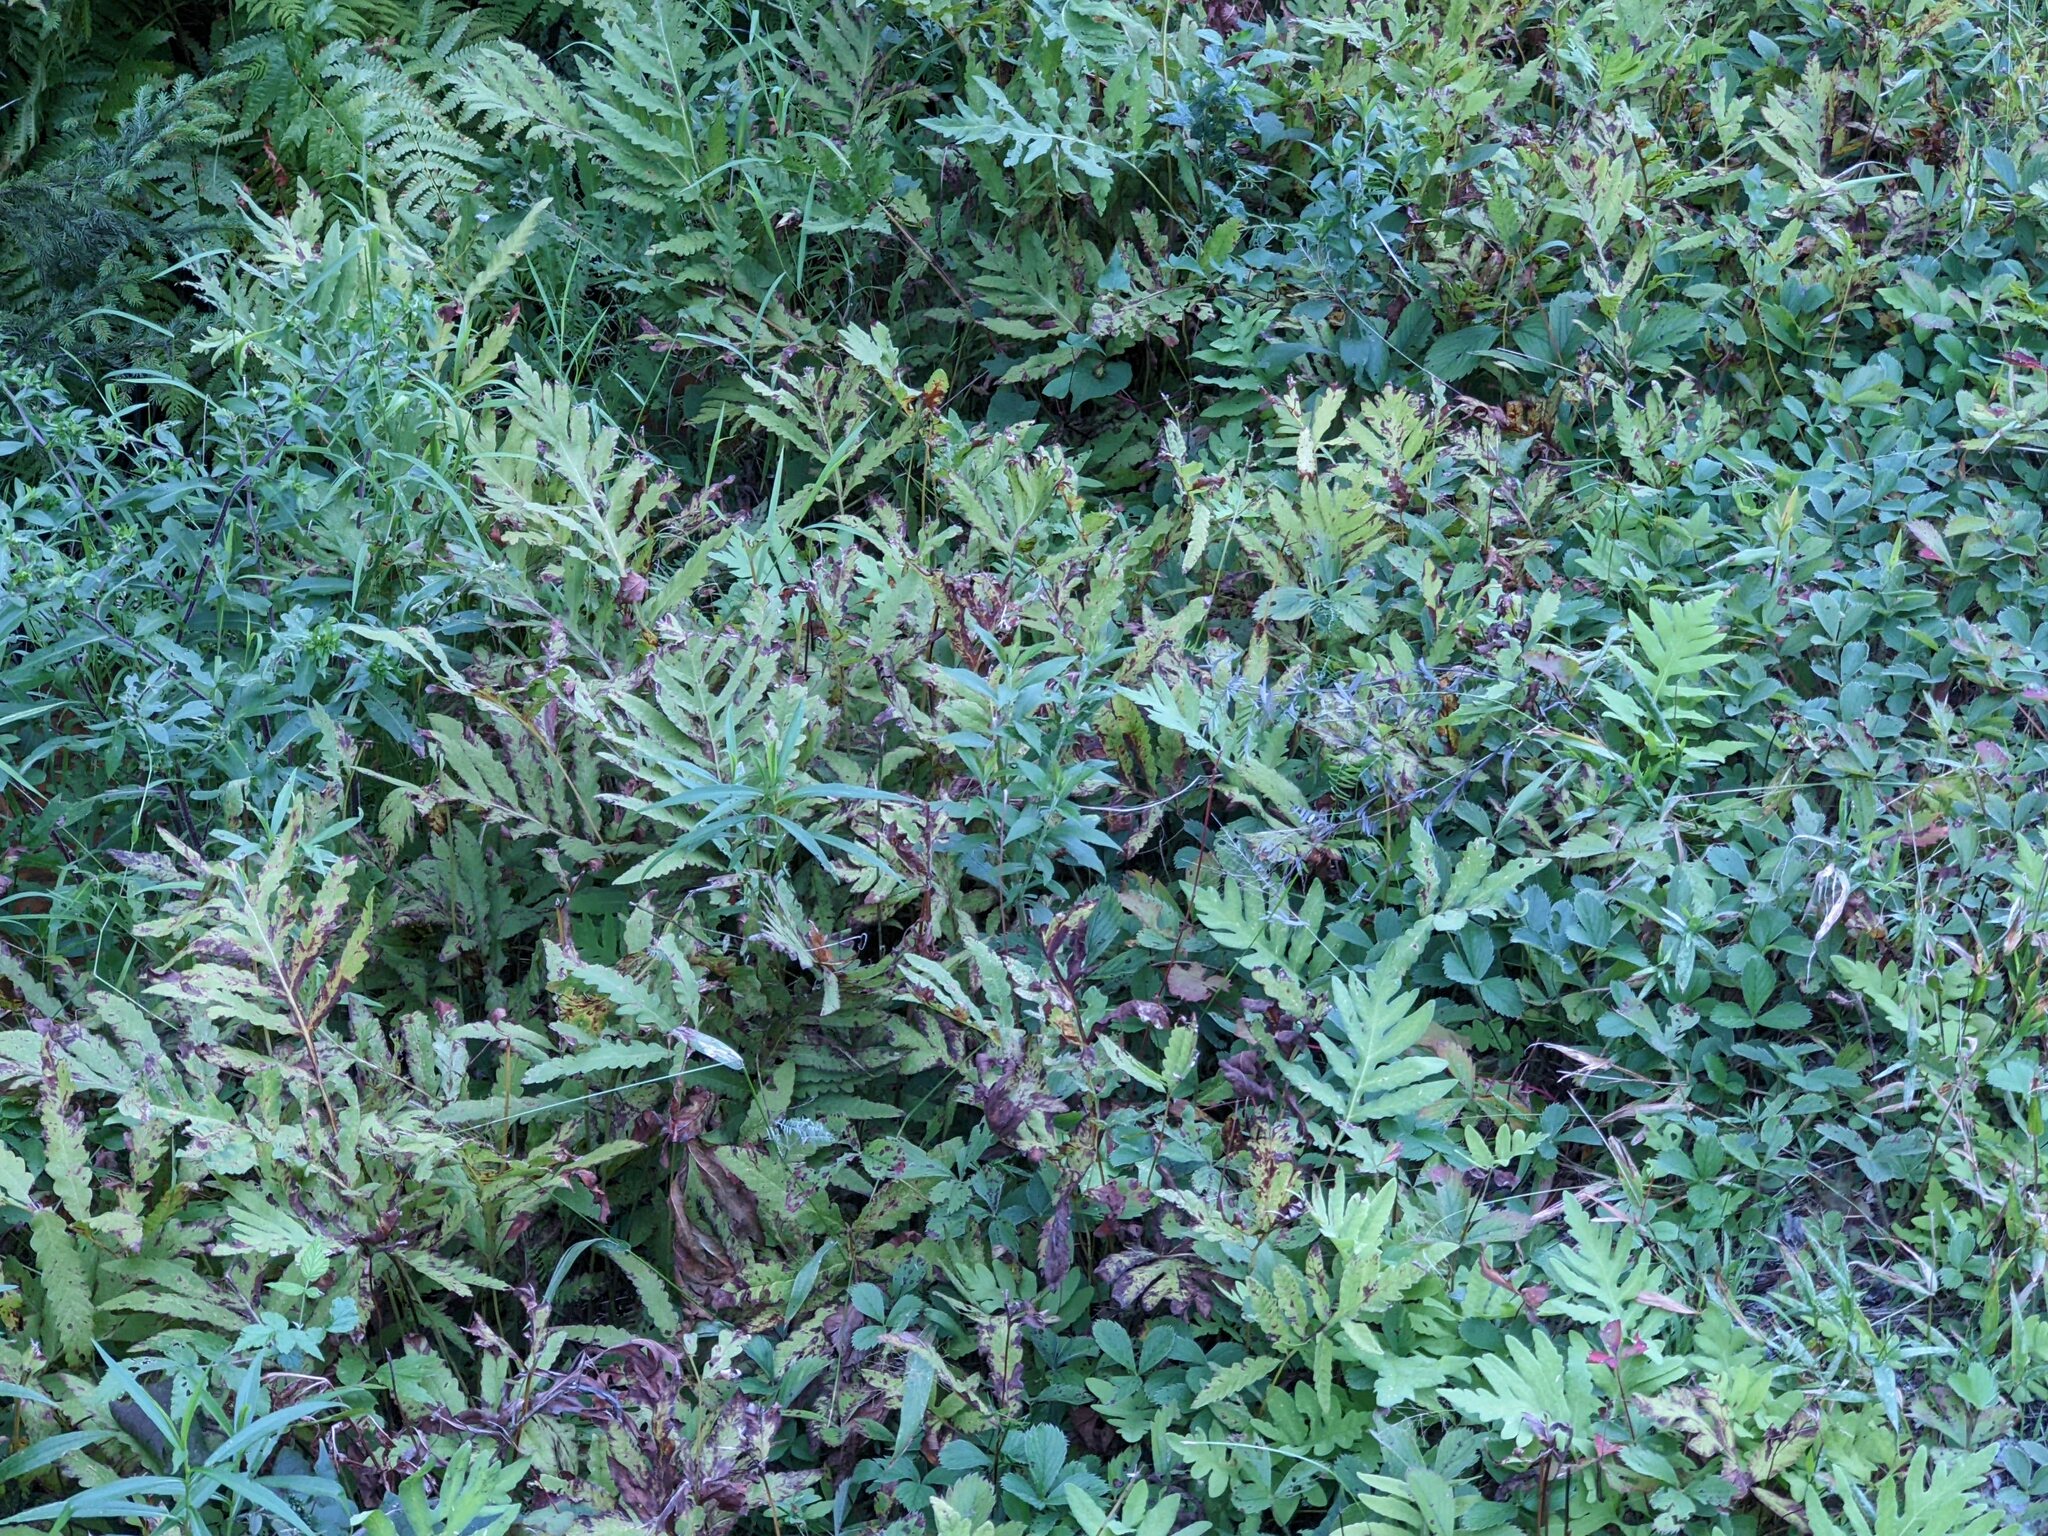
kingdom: Plantae
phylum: Tracheophyta
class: Polypodiopsida
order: Polypodiales
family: Onocleaceae
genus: Onoclea
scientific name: Onoclea sensibilis
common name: Sensitive fern
